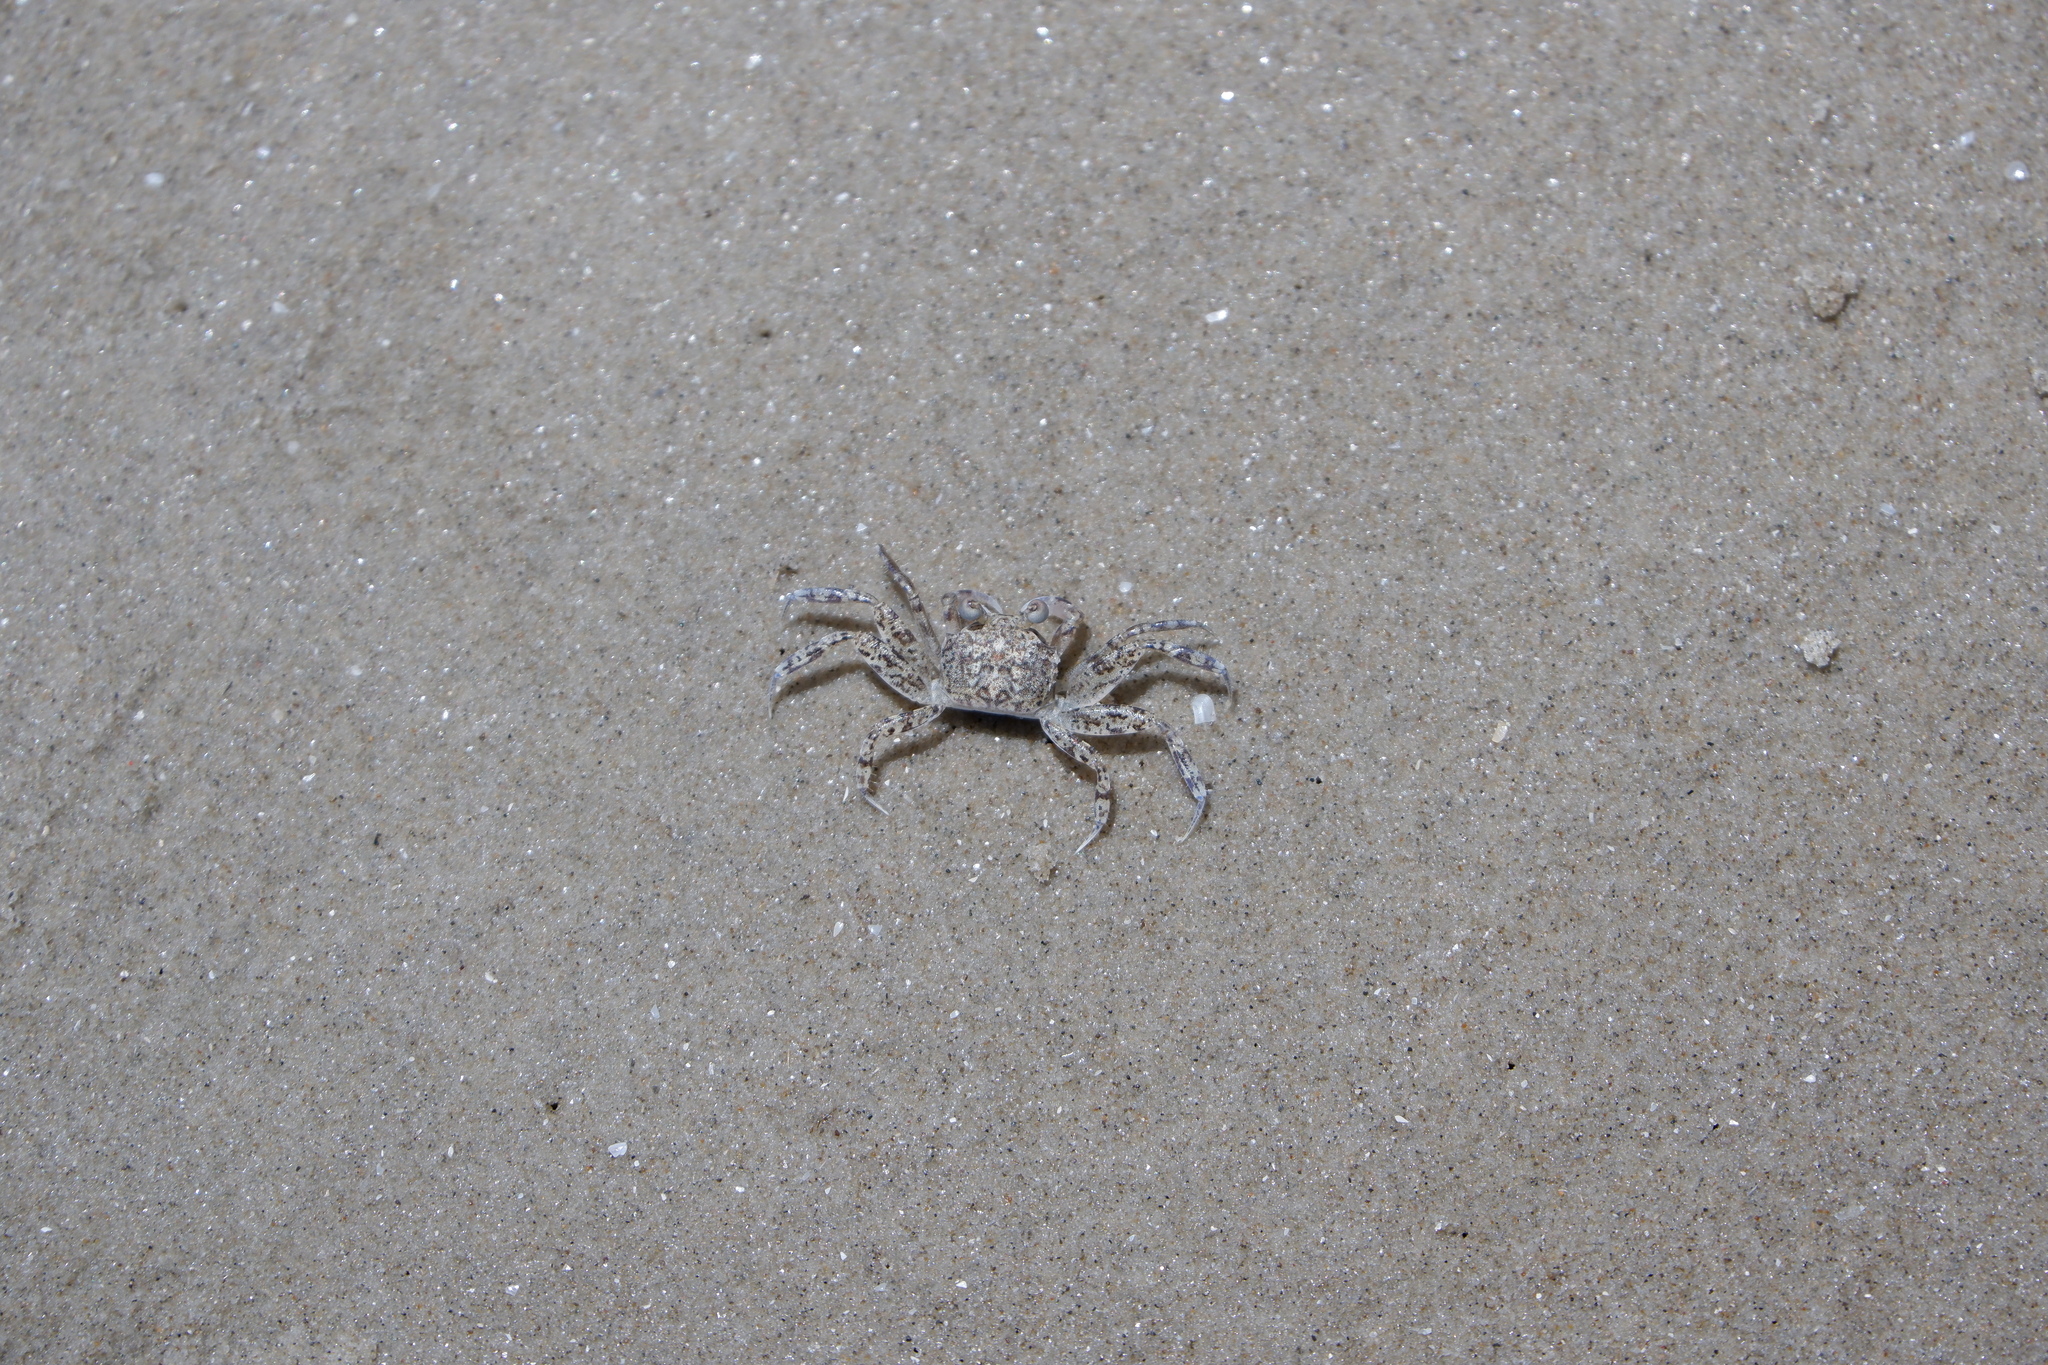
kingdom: Animalia
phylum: Arthropoda
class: Malacostraca
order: Decapoda
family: Ocypodidae
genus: Ocypode
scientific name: Ocypode quadrata
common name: Ghost crab
